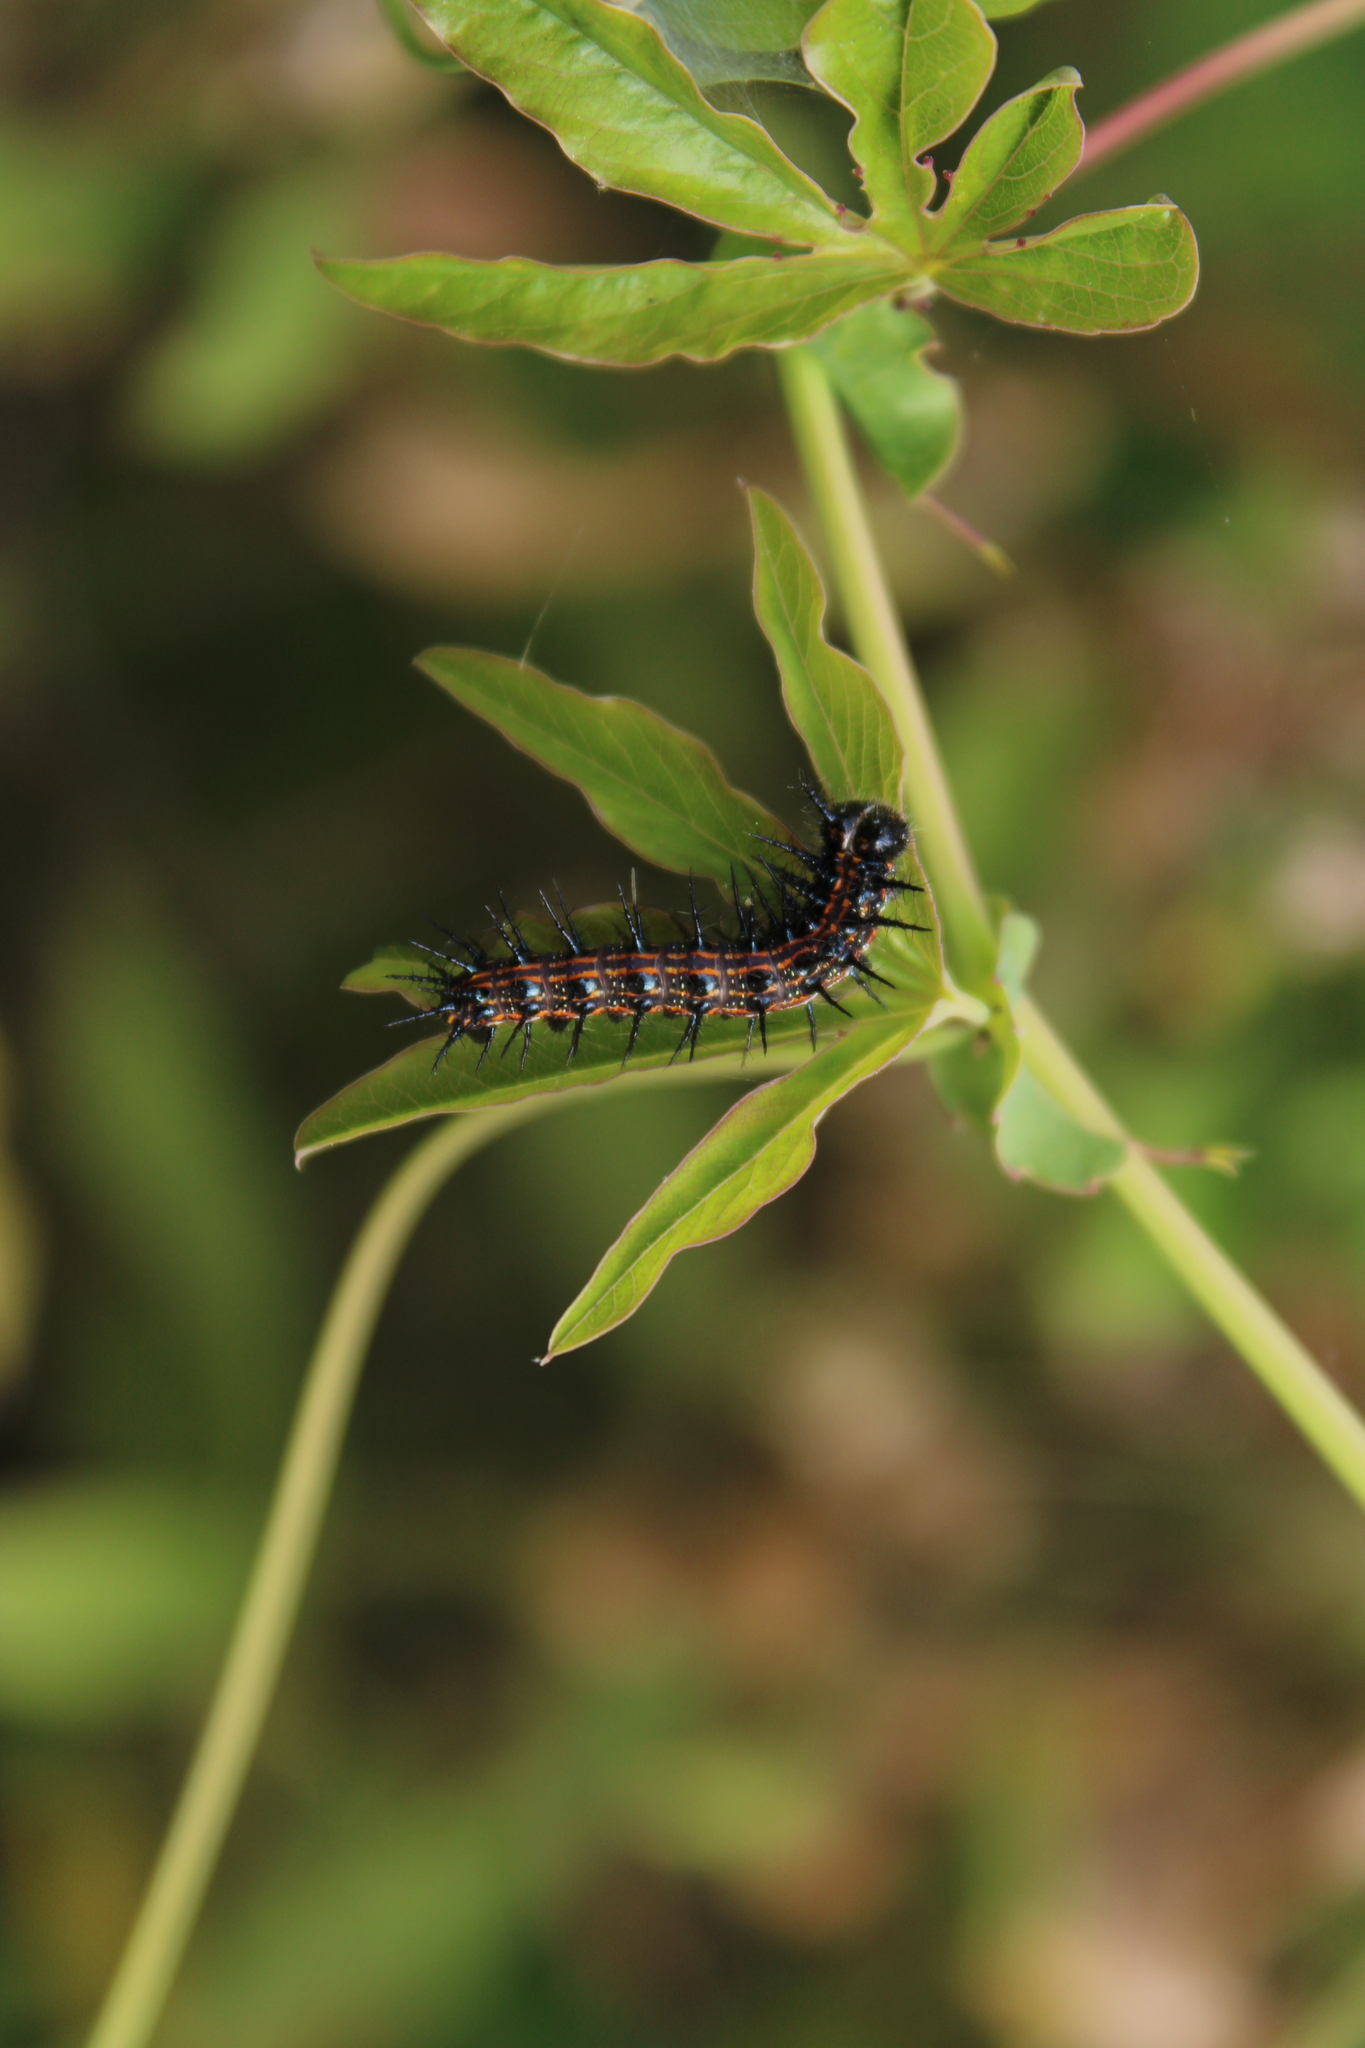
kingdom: Animalia
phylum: Arthropoda
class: Insecta
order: Lepidoptera
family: Nymphalidae
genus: Dione
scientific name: Dione vanillae
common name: Gulf fritillary
